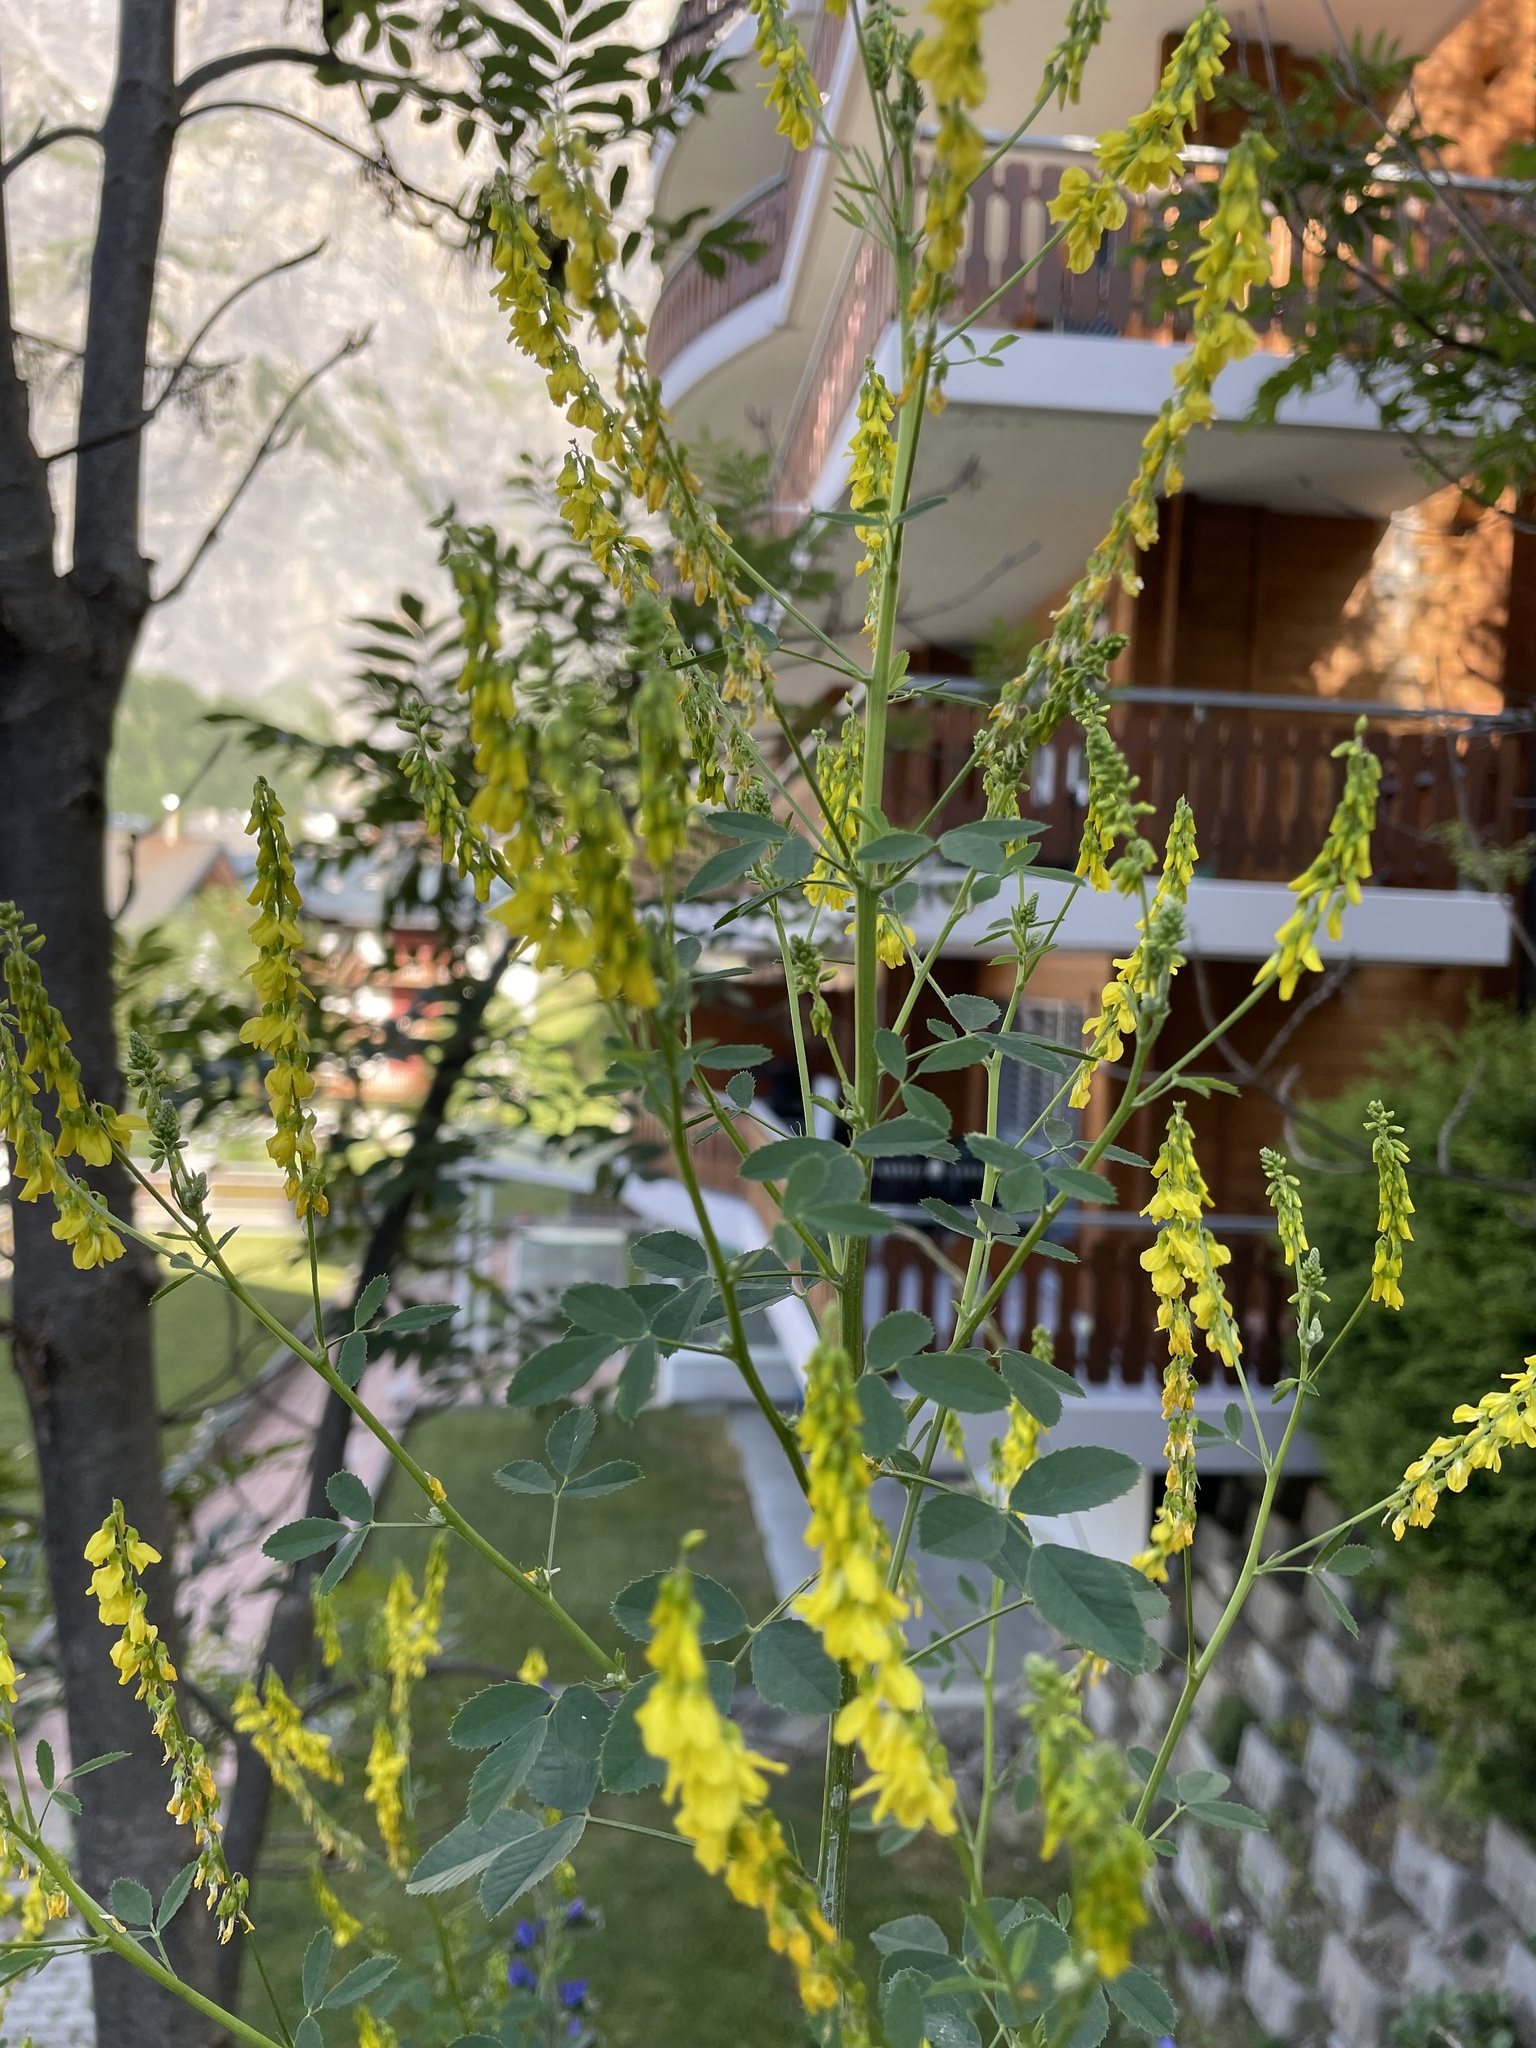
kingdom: Plantae
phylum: Tracheophyta
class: Magnoliopsida
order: Fabales
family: Fabaceae
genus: Melilotus
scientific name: Melilotus officinalis
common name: Sweetclover
